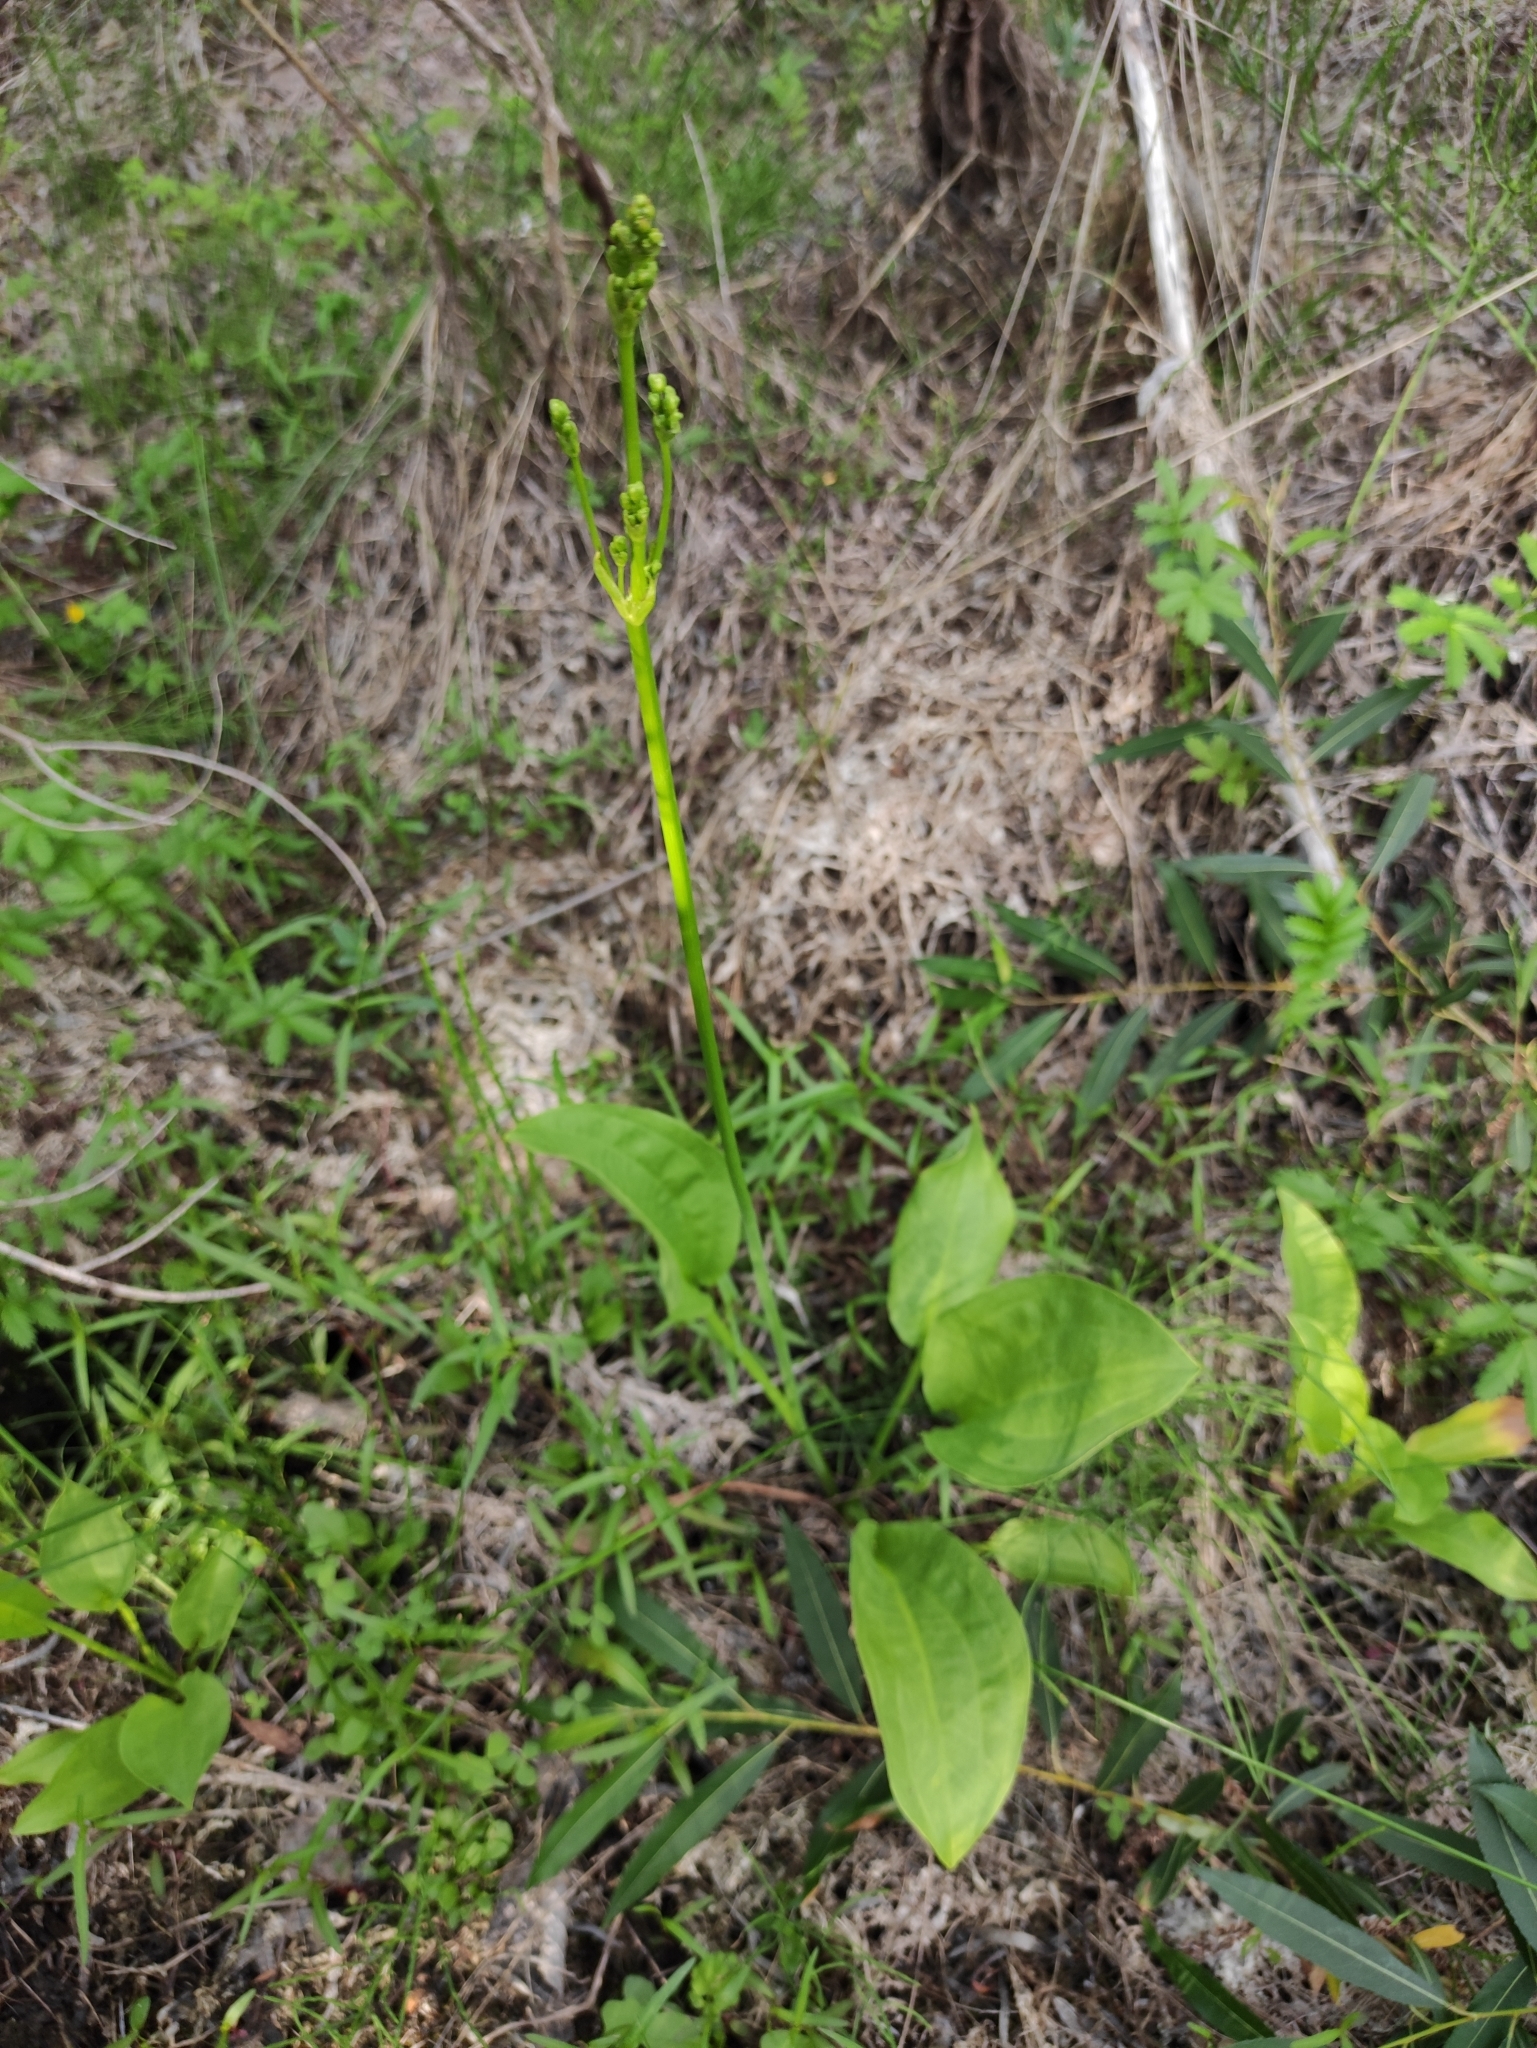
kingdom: Plantae
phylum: Tracheophyta
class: Liliopsida
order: Alismatales
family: Alismataceae
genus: Alisma
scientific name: Alisma plantago-aquatica
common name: Water-plantain
